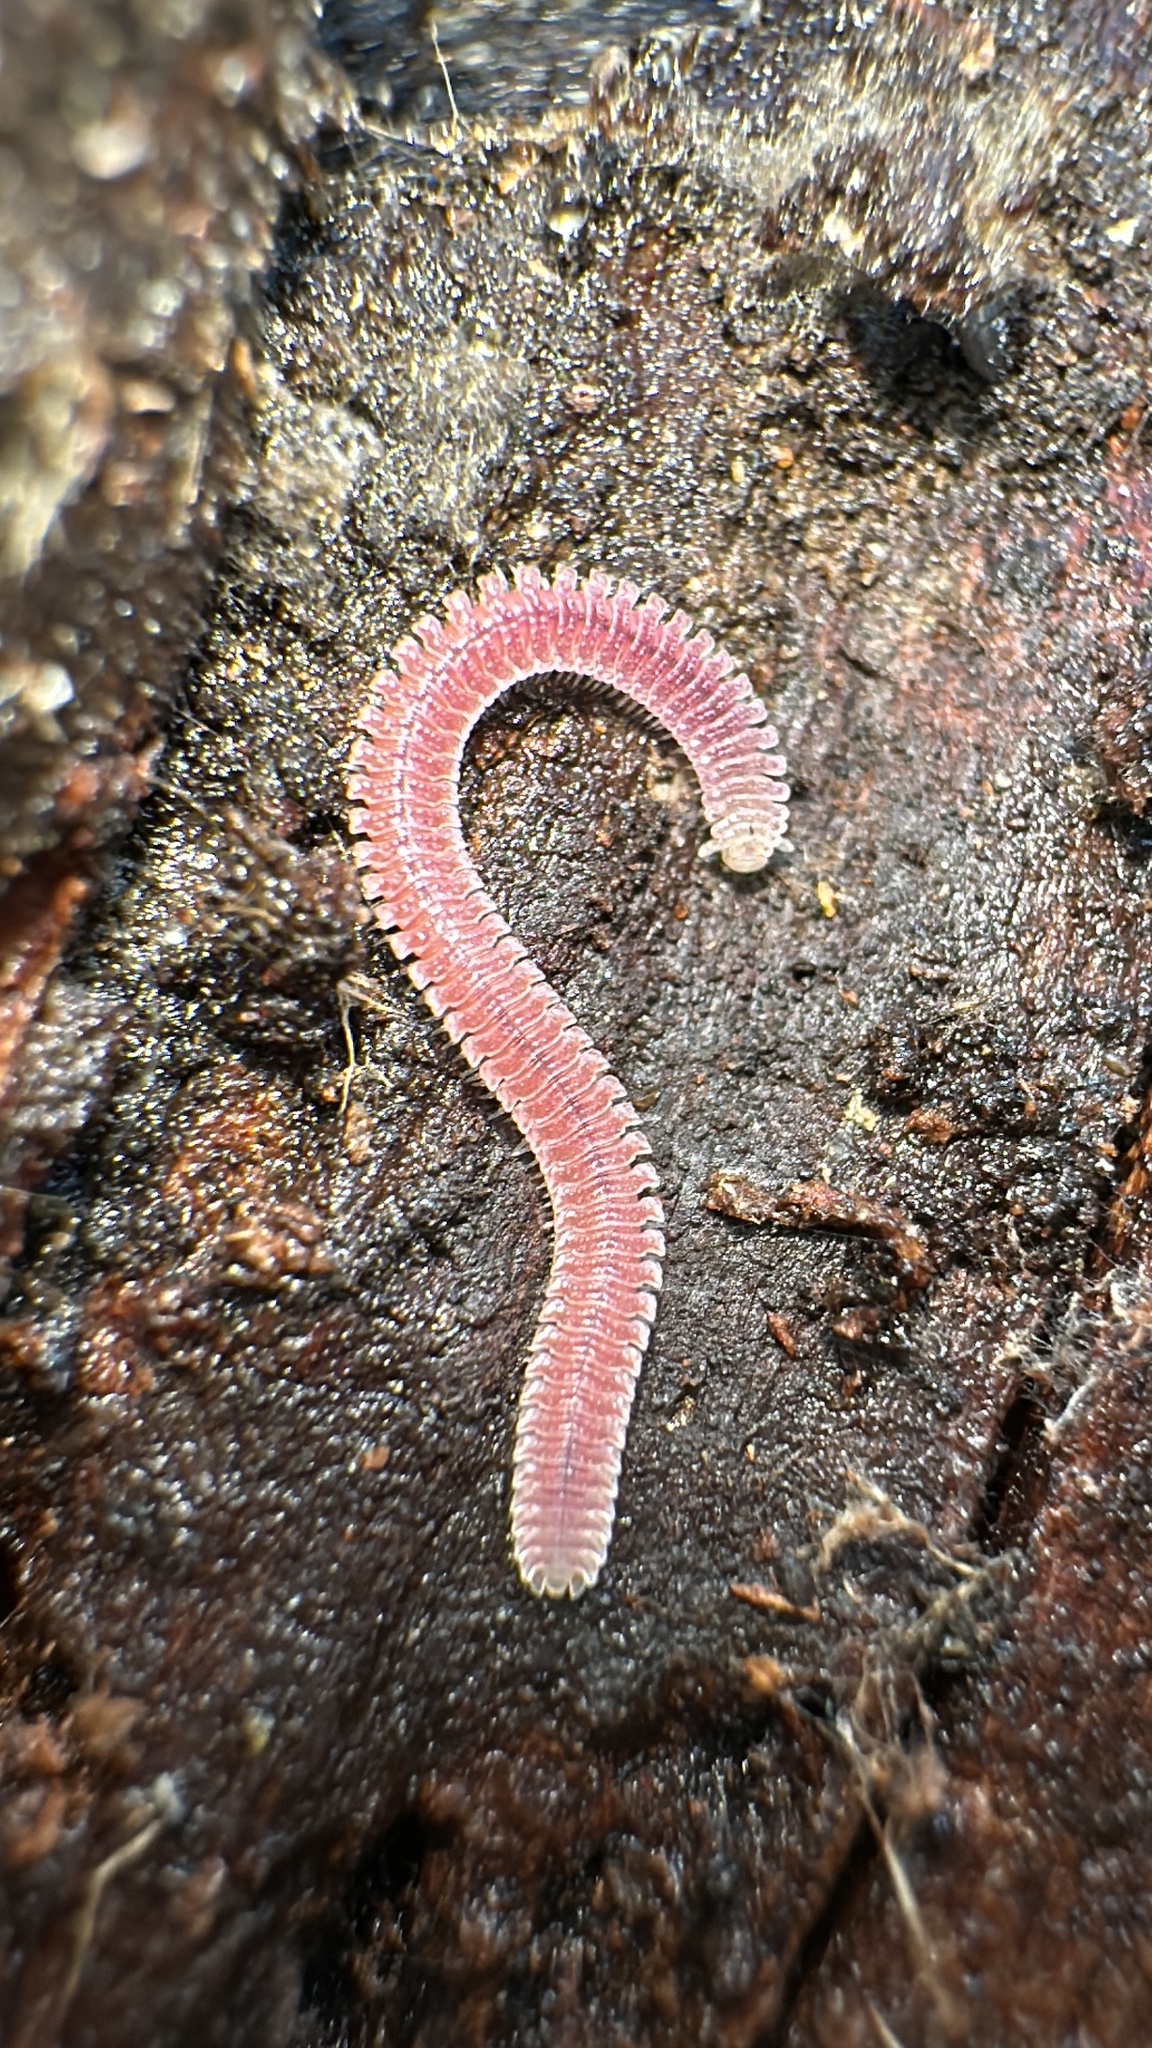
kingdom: Animalia
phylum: Arthropoda
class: Diplopoda
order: Platydesmida
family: Andrognathidae
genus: Gosodesmus
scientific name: Gosodesmus claremontus
